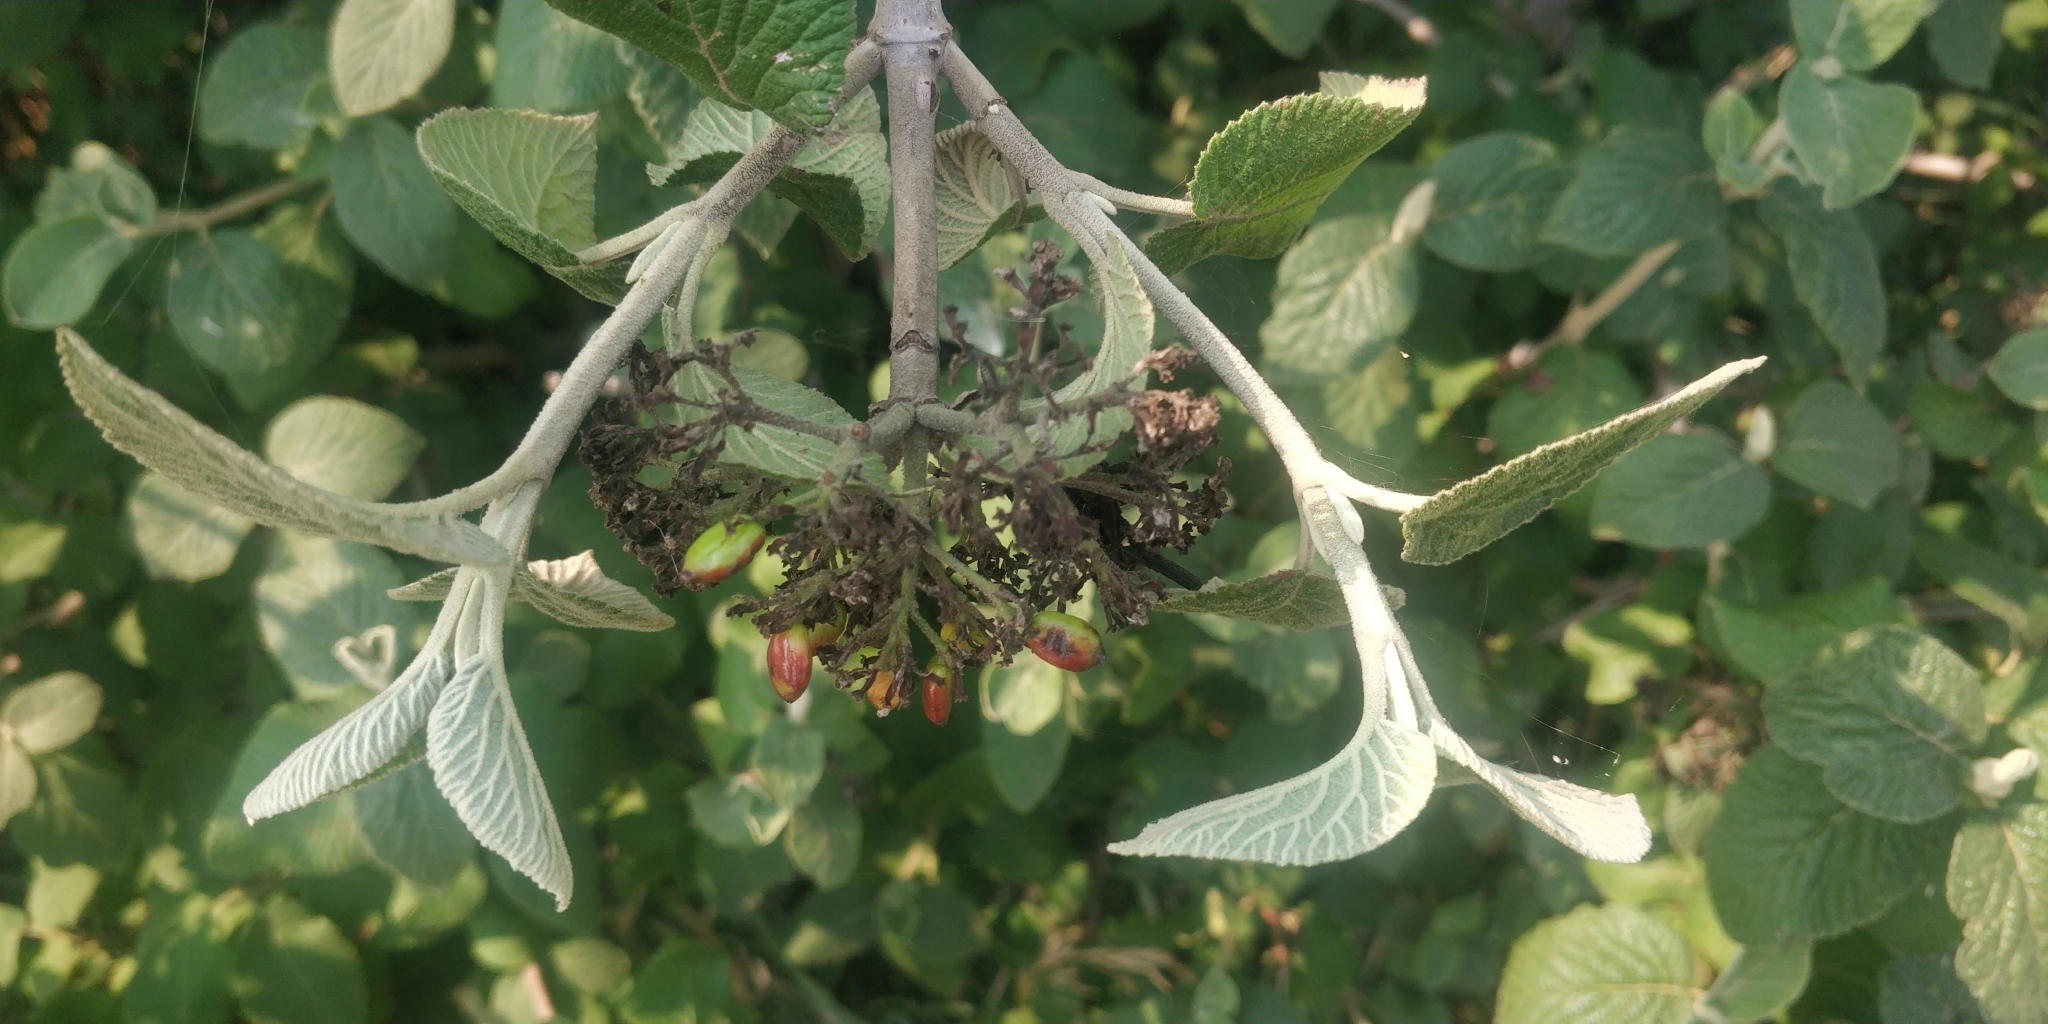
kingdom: Plantae
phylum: Tracheophyta
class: Magnoliopsida
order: Dipsacales
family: Viburnaceae
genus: Viburnum
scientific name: Viburnum lantana
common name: Wayfaring tree
